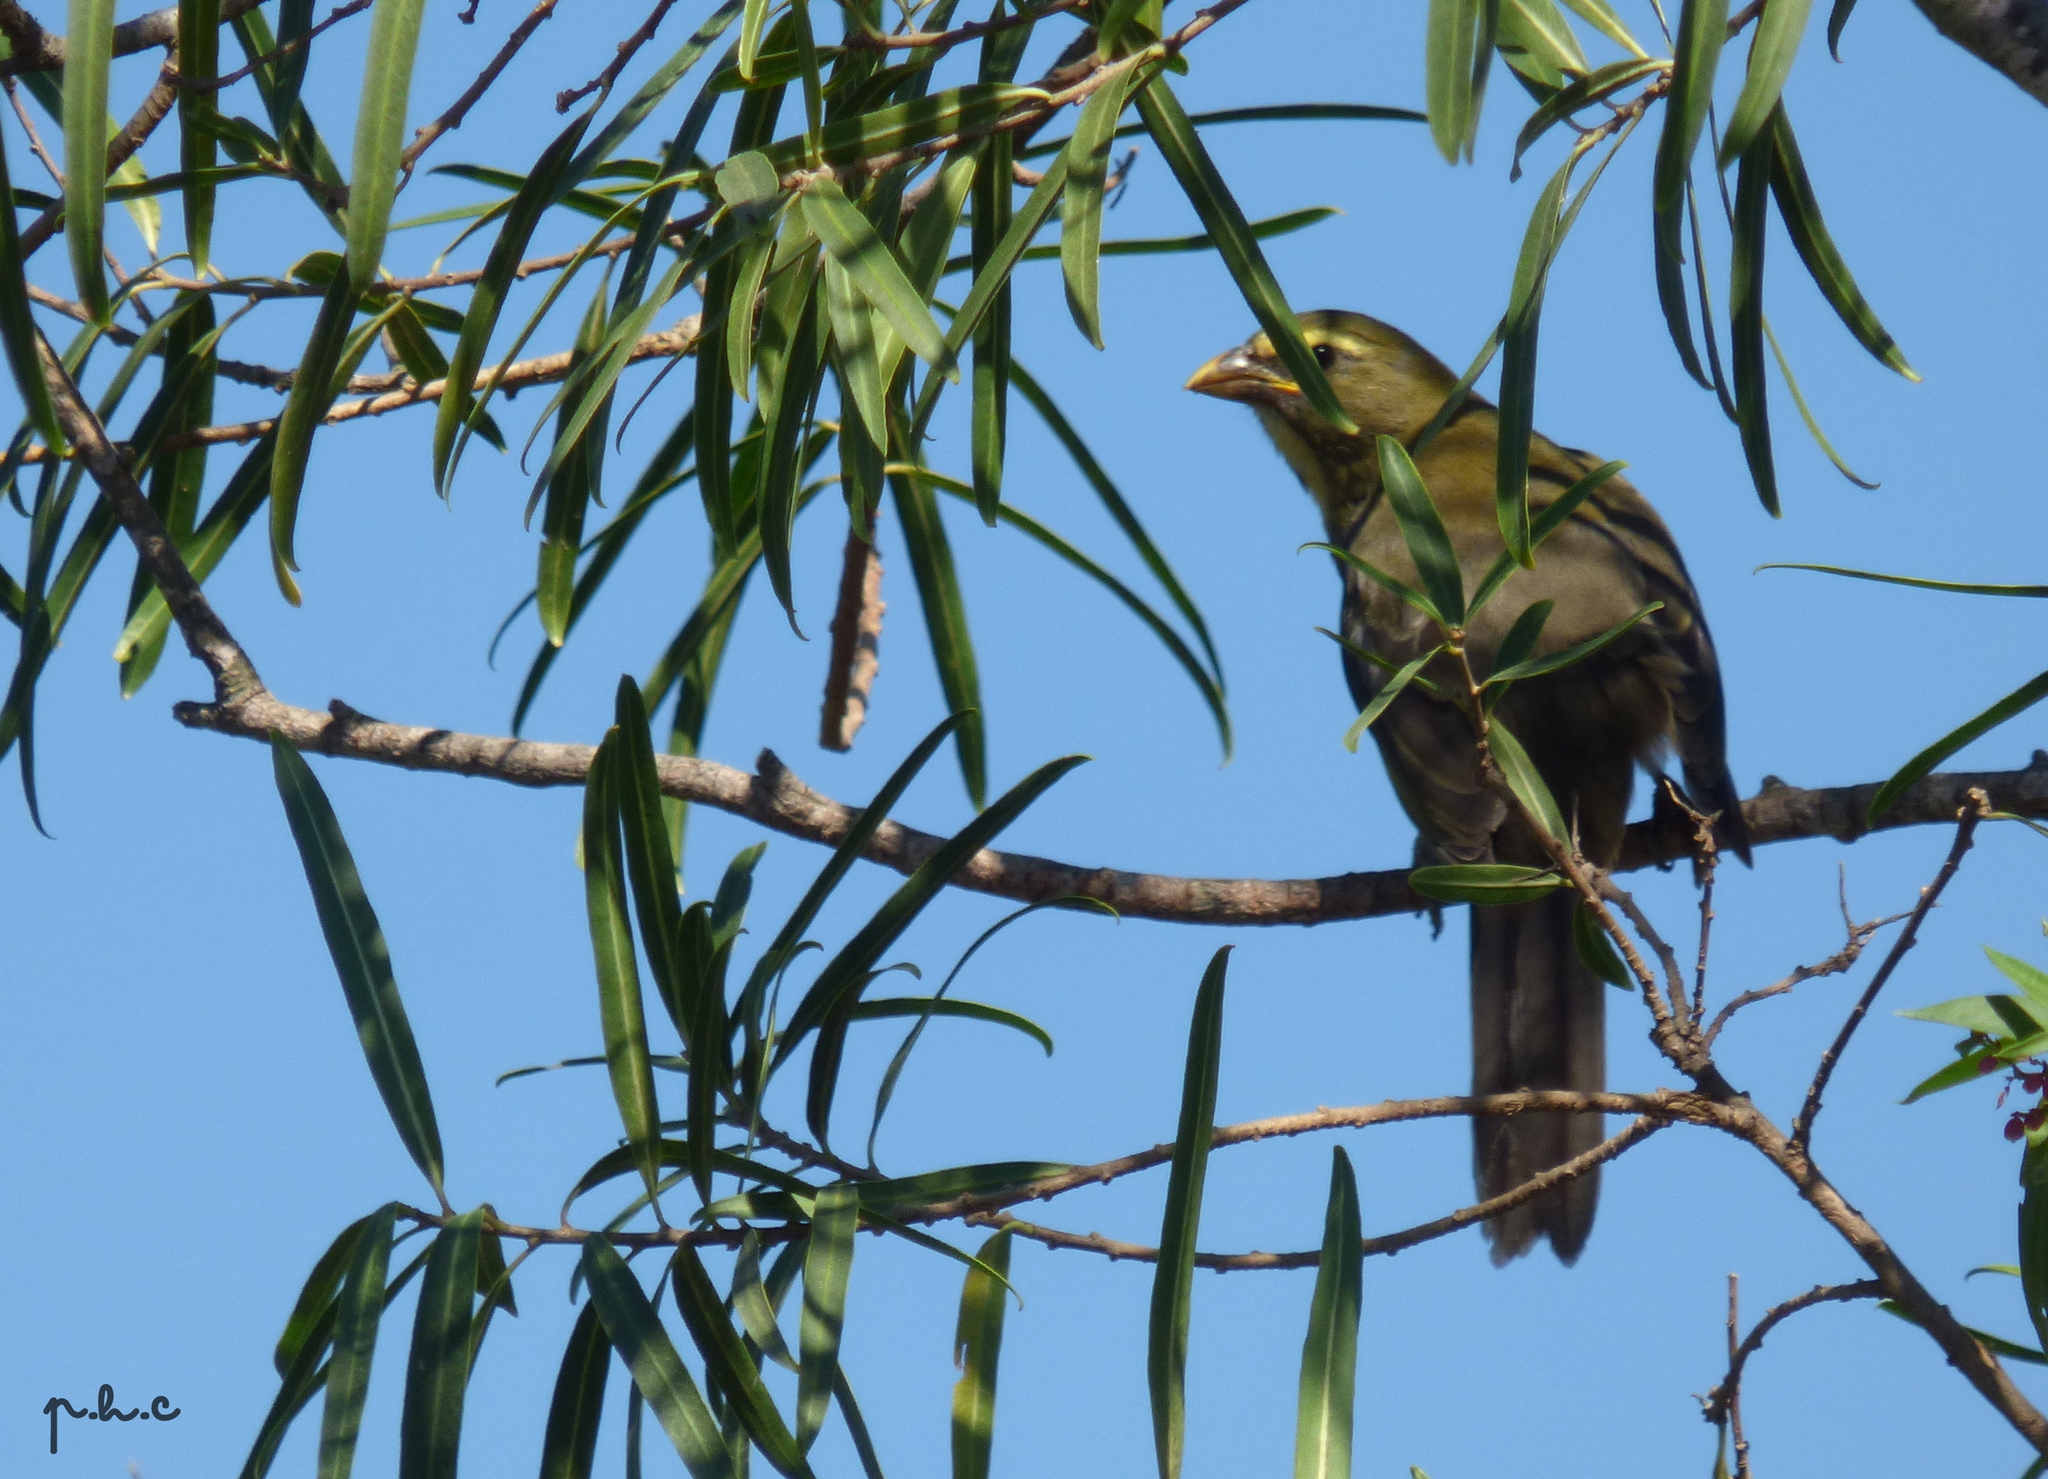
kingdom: Animalia
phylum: Chordata
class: Aves
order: Passeriformes
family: Thraupidae
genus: Saltator
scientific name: Saltator coerulescens
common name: Grayish saltator
